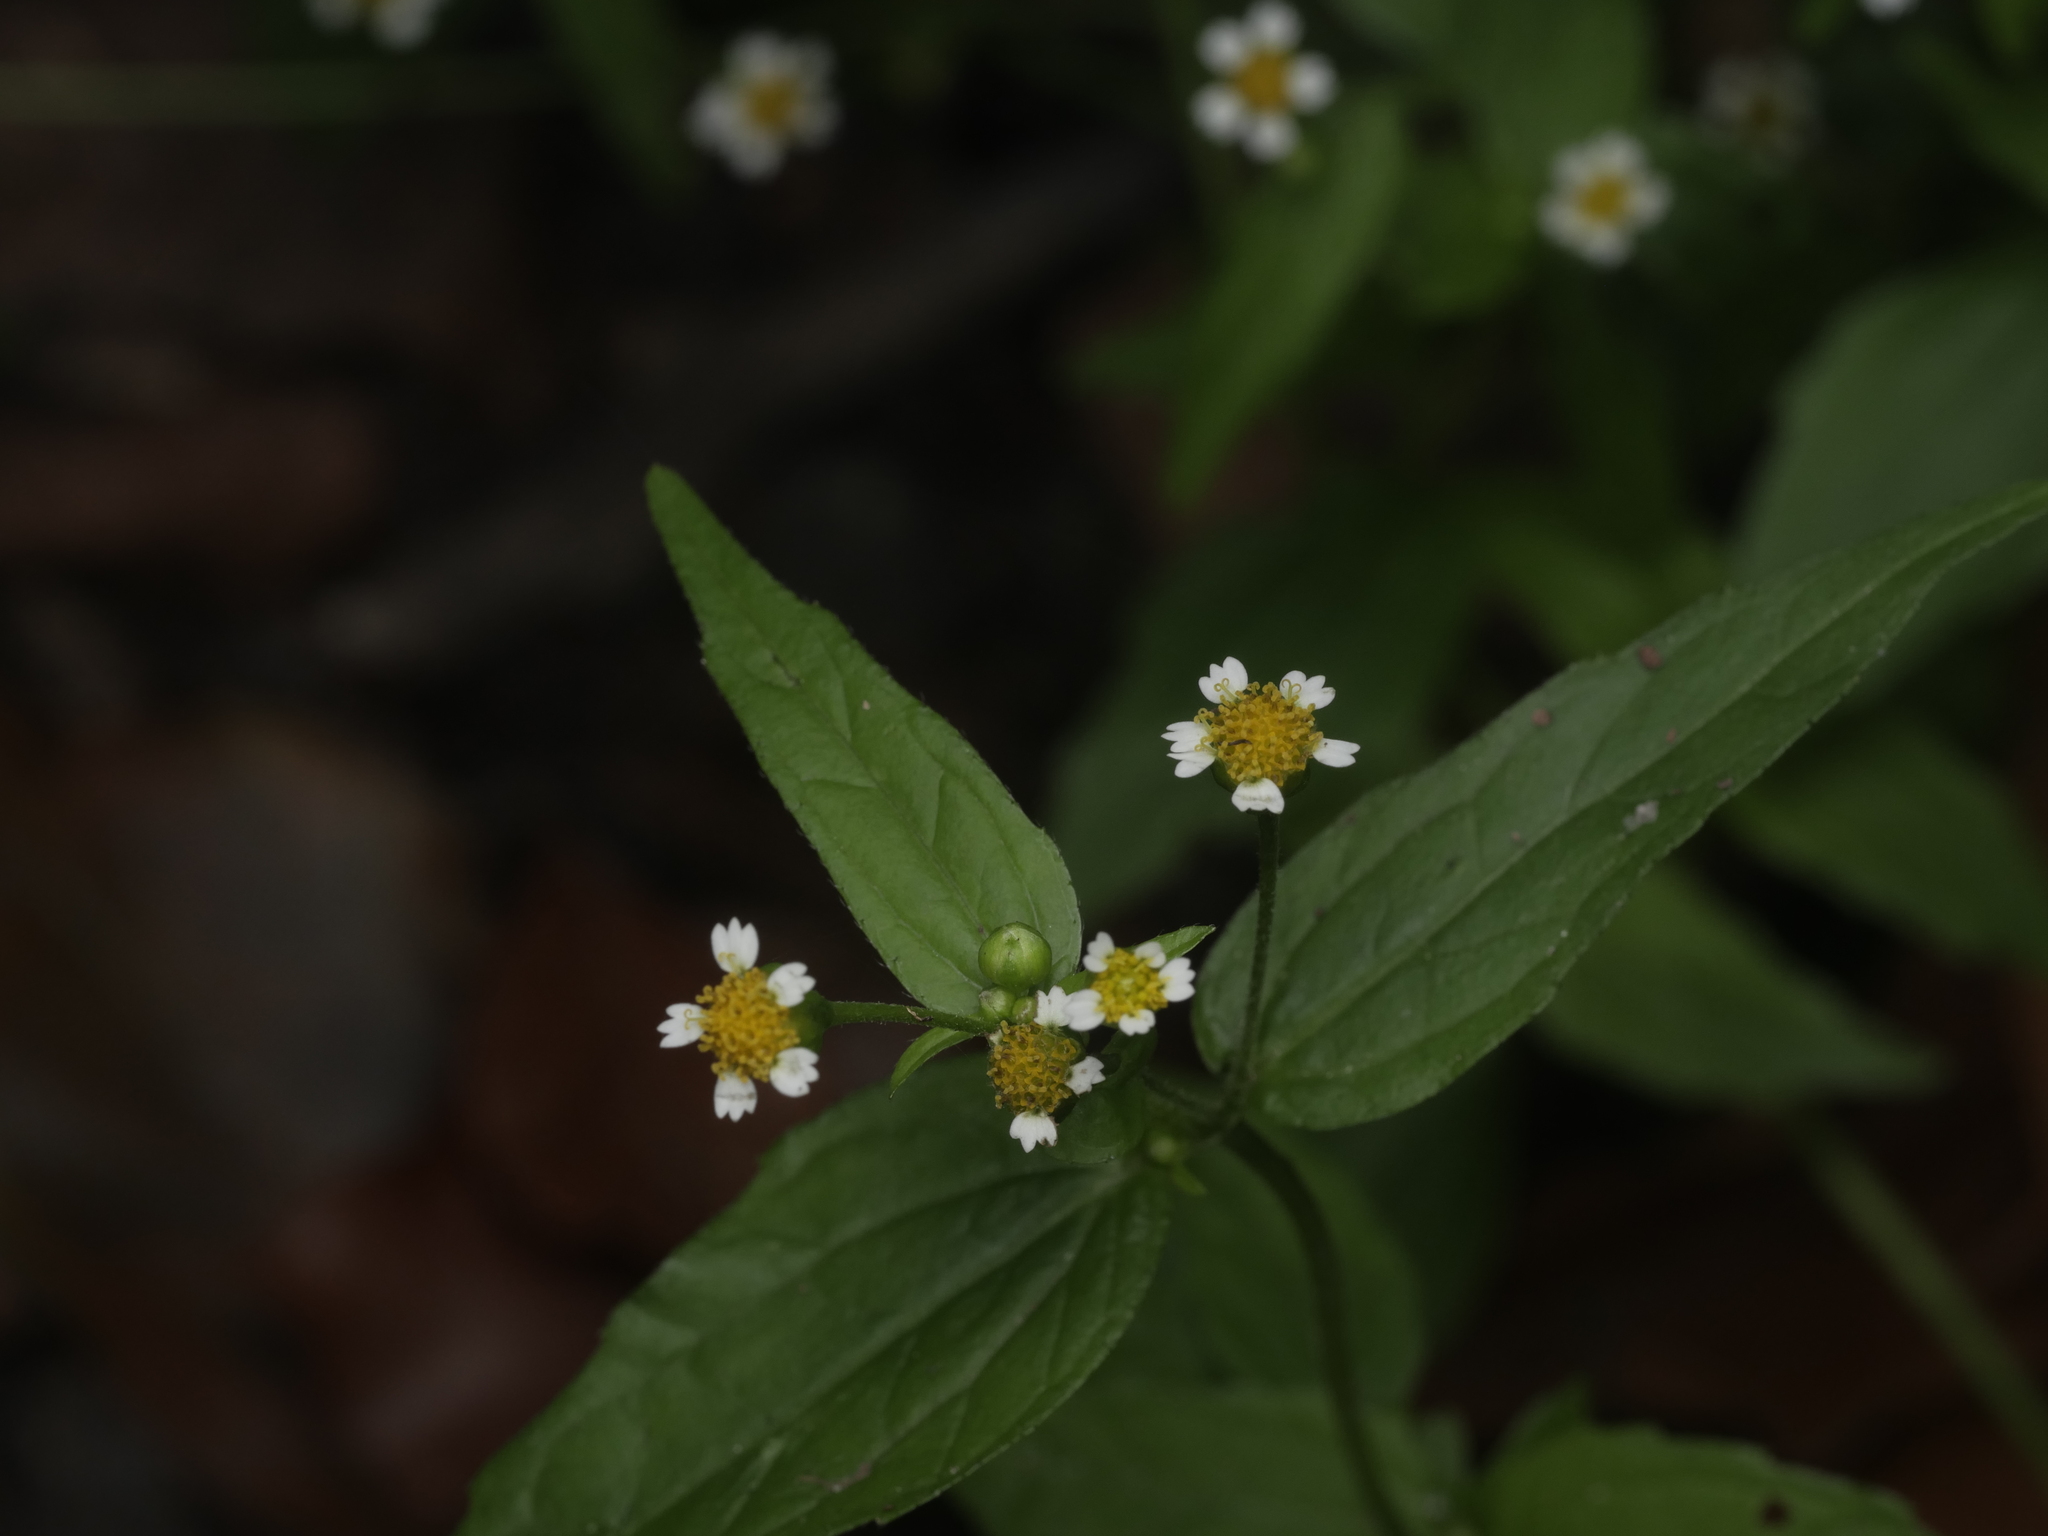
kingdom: Plantae
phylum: Tracheophyta
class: Magnoliopsida
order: Asterales
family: Asteraceae
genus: Galinsoga
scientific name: Galinsoga parviflora
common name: Gallant soldier
